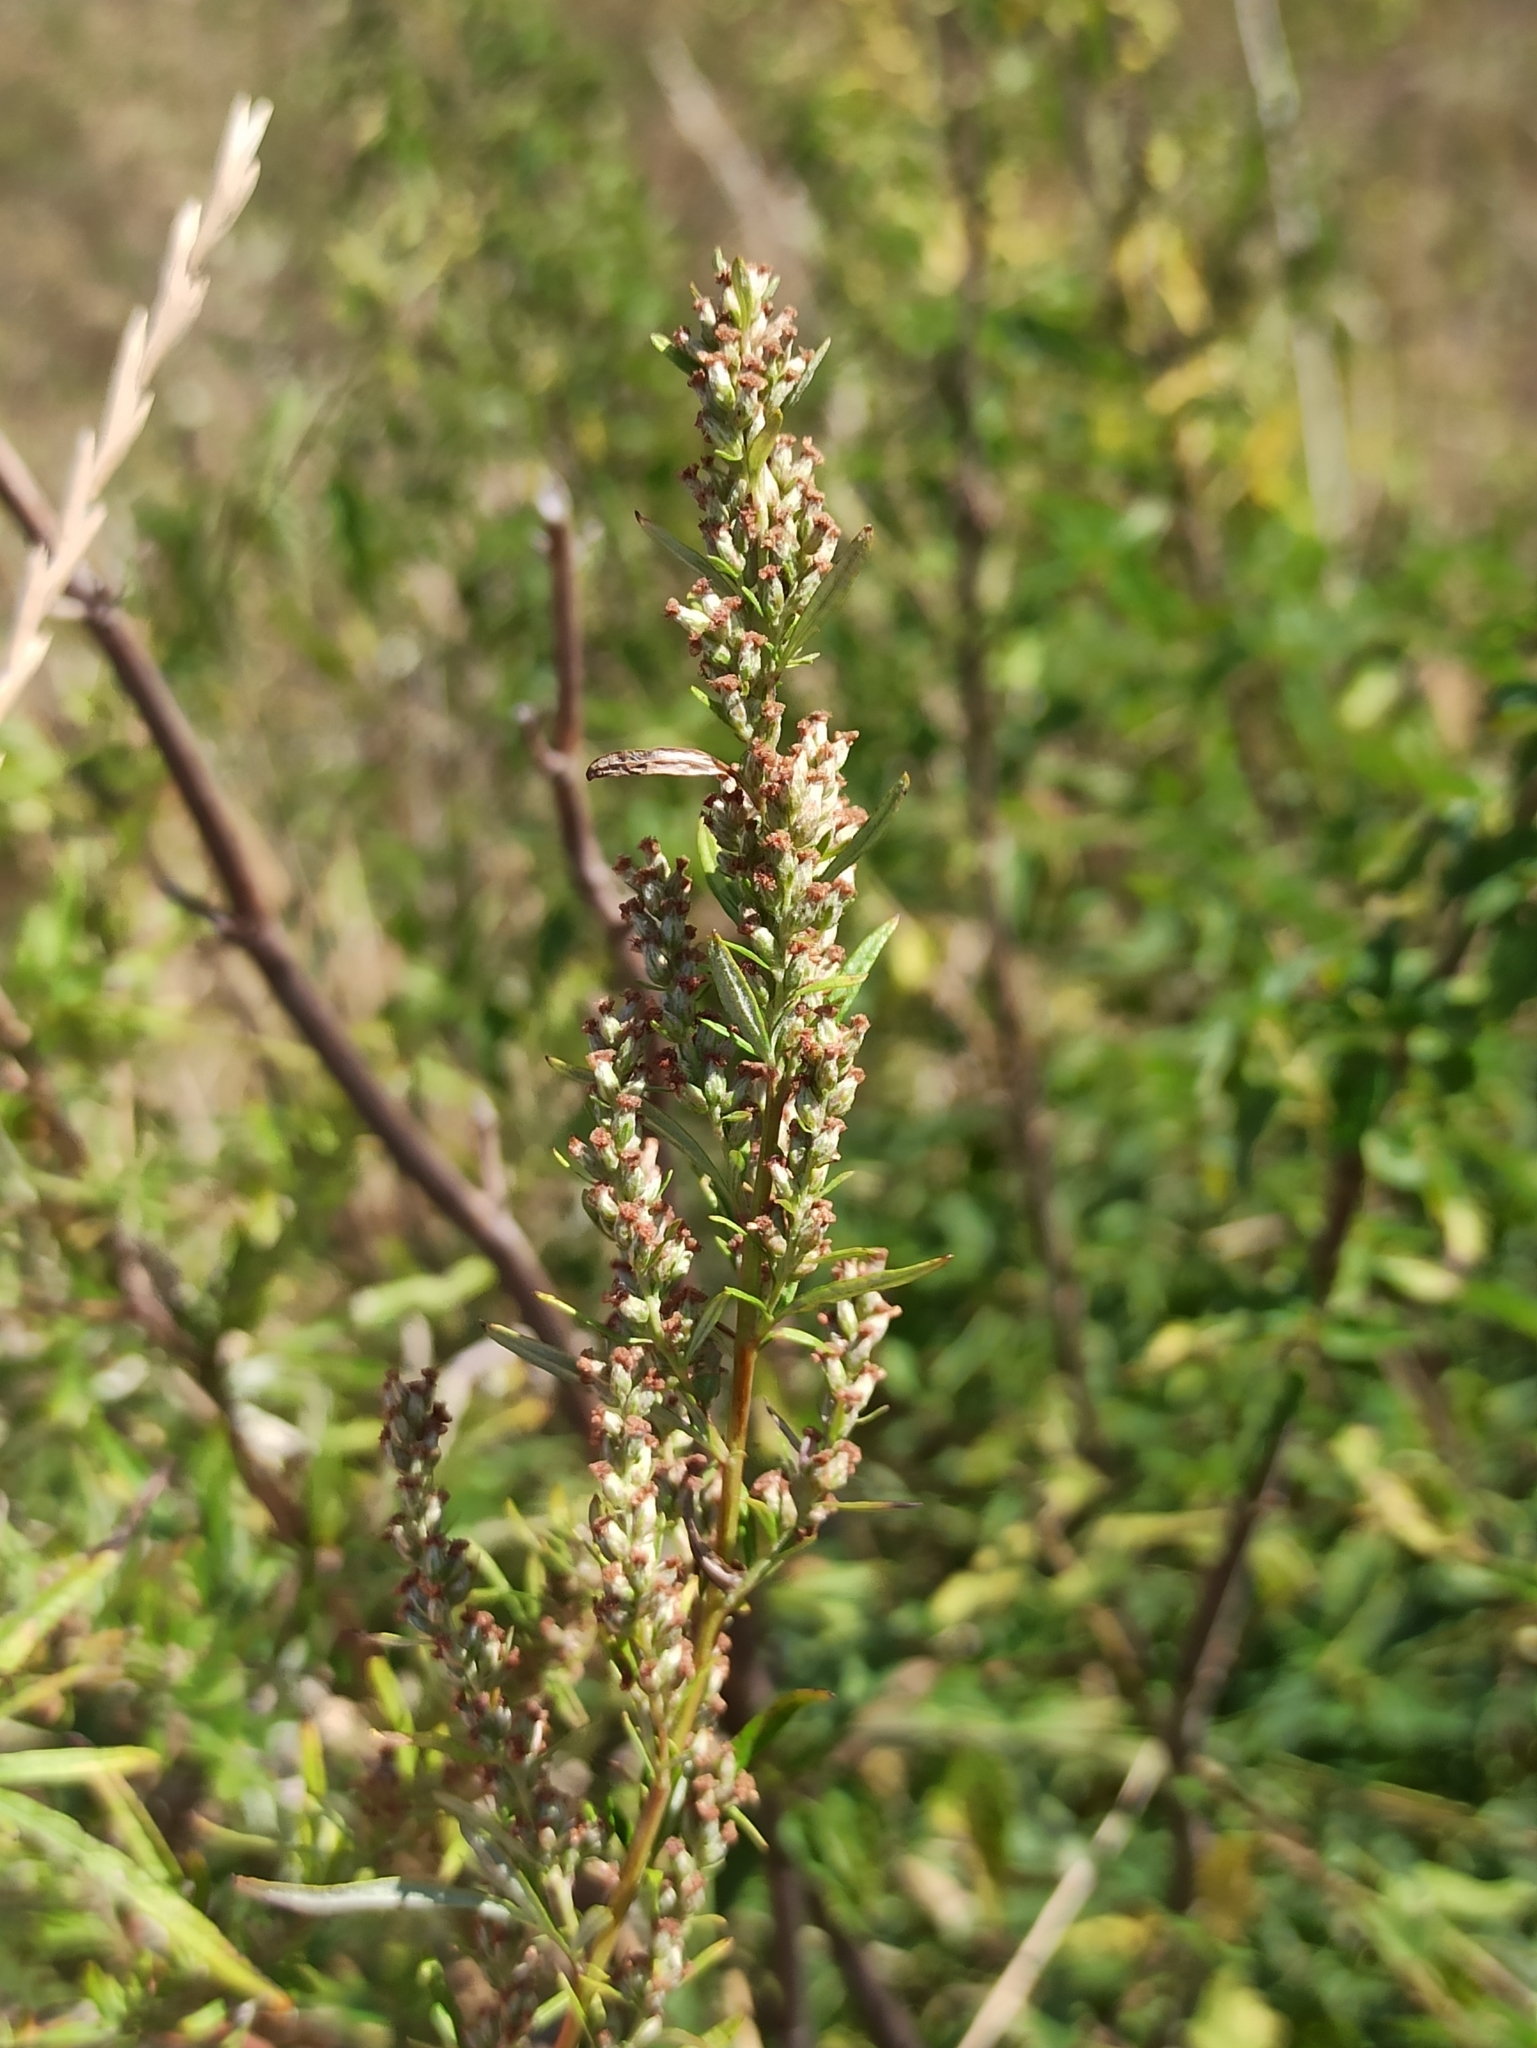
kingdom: Plantae
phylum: Tracheophyta
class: Magnoliopsida
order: Asterales
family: Asteraceae
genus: Artemisia
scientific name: Artemisia vulgaris
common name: Mugwort
